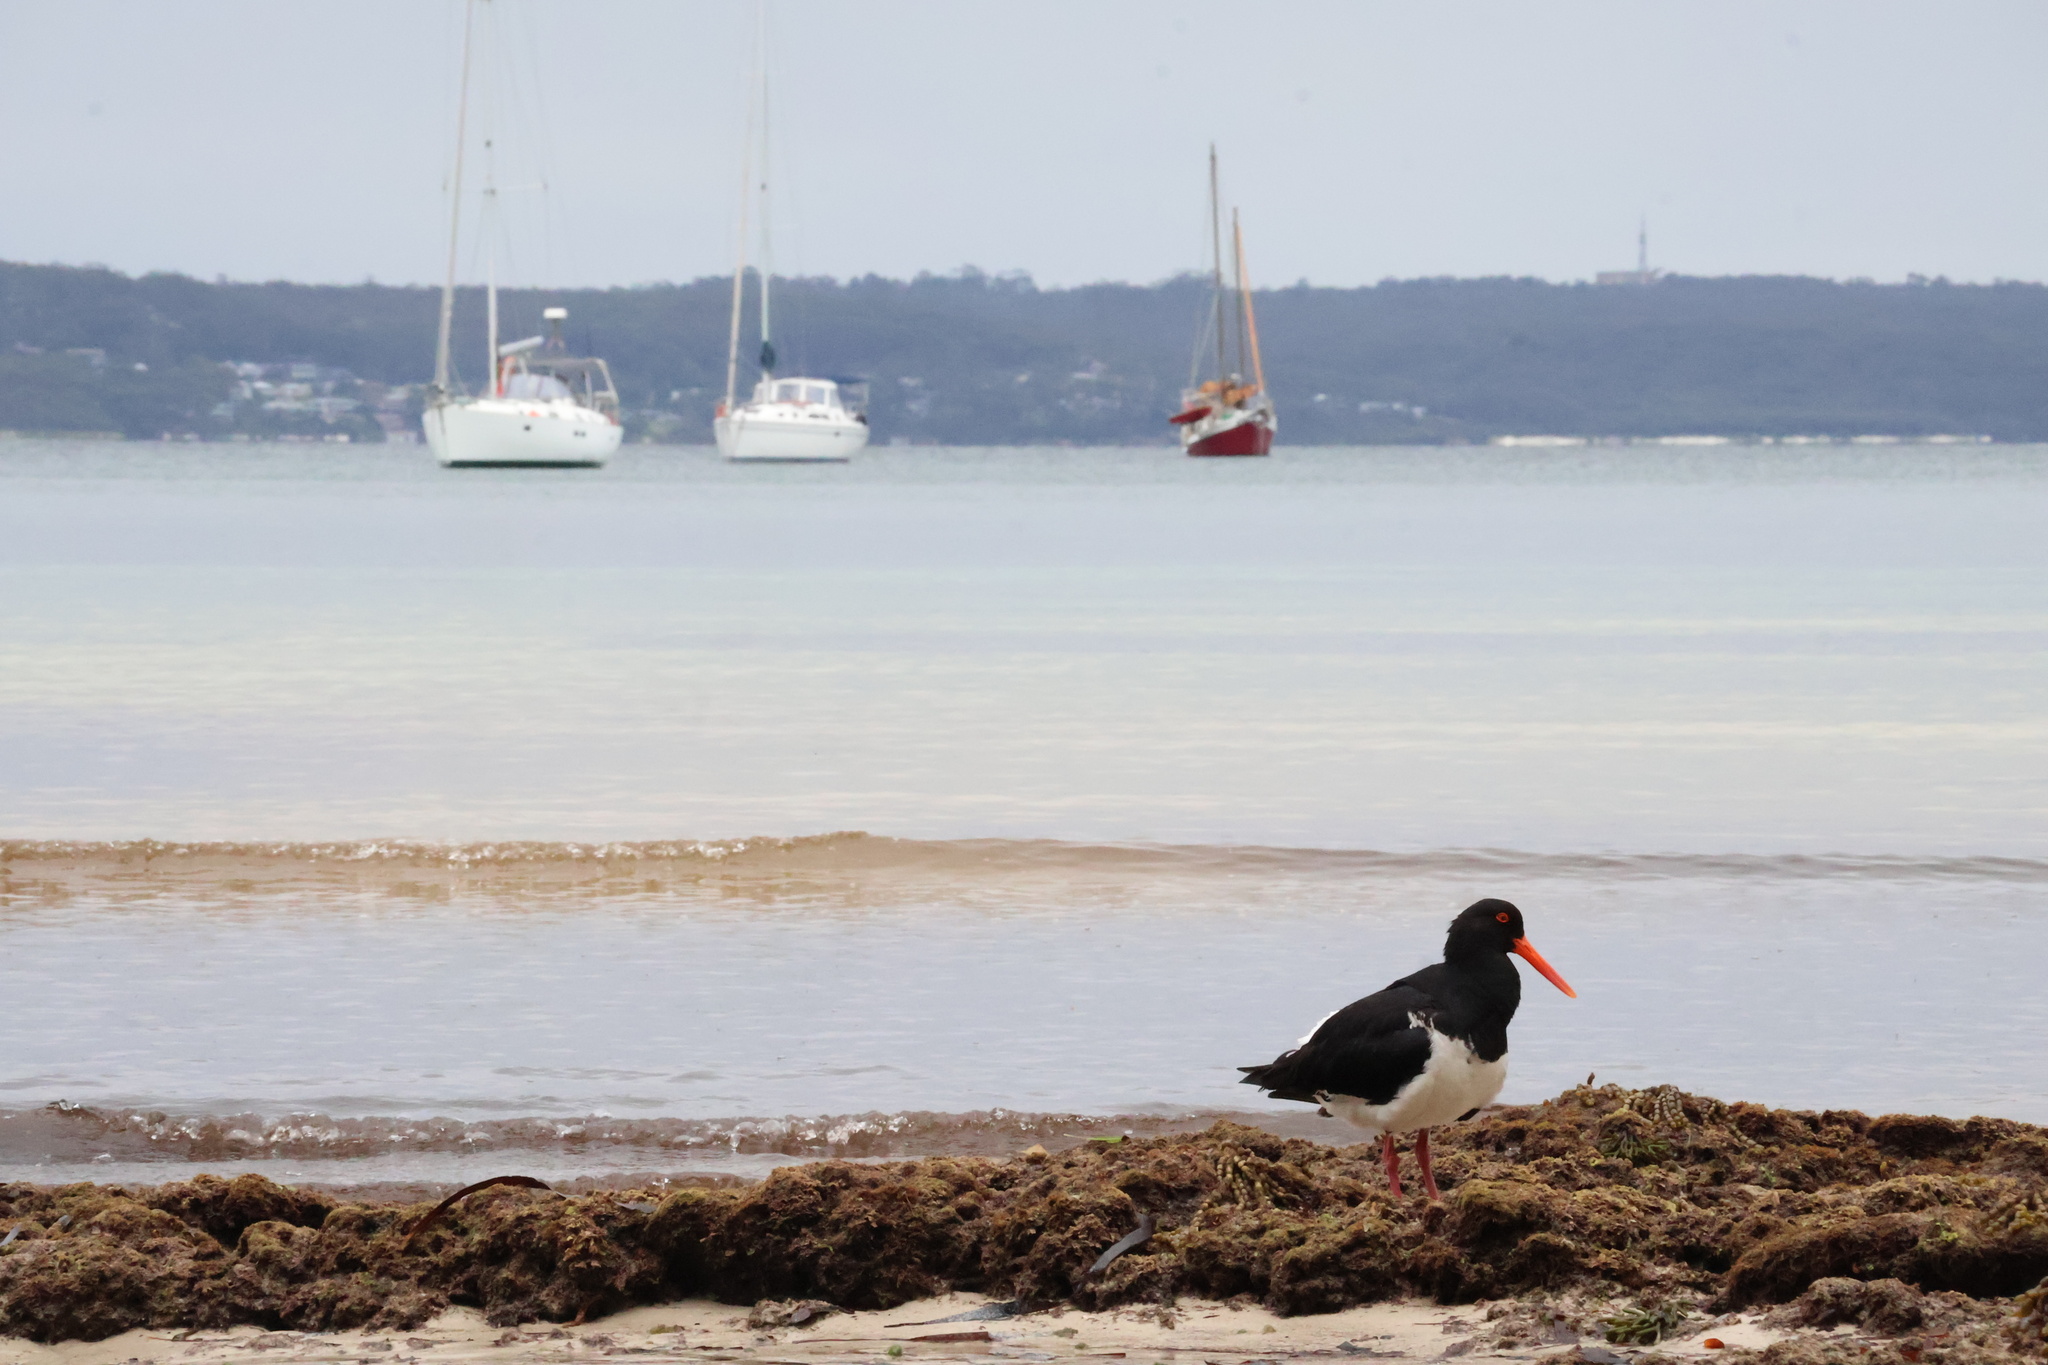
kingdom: Animalia
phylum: Chordata
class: Aves
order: Charadriiformes
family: Haematopodidae
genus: Haematopus
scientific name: Haematopus longirostris
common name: Pied oystercatcher
